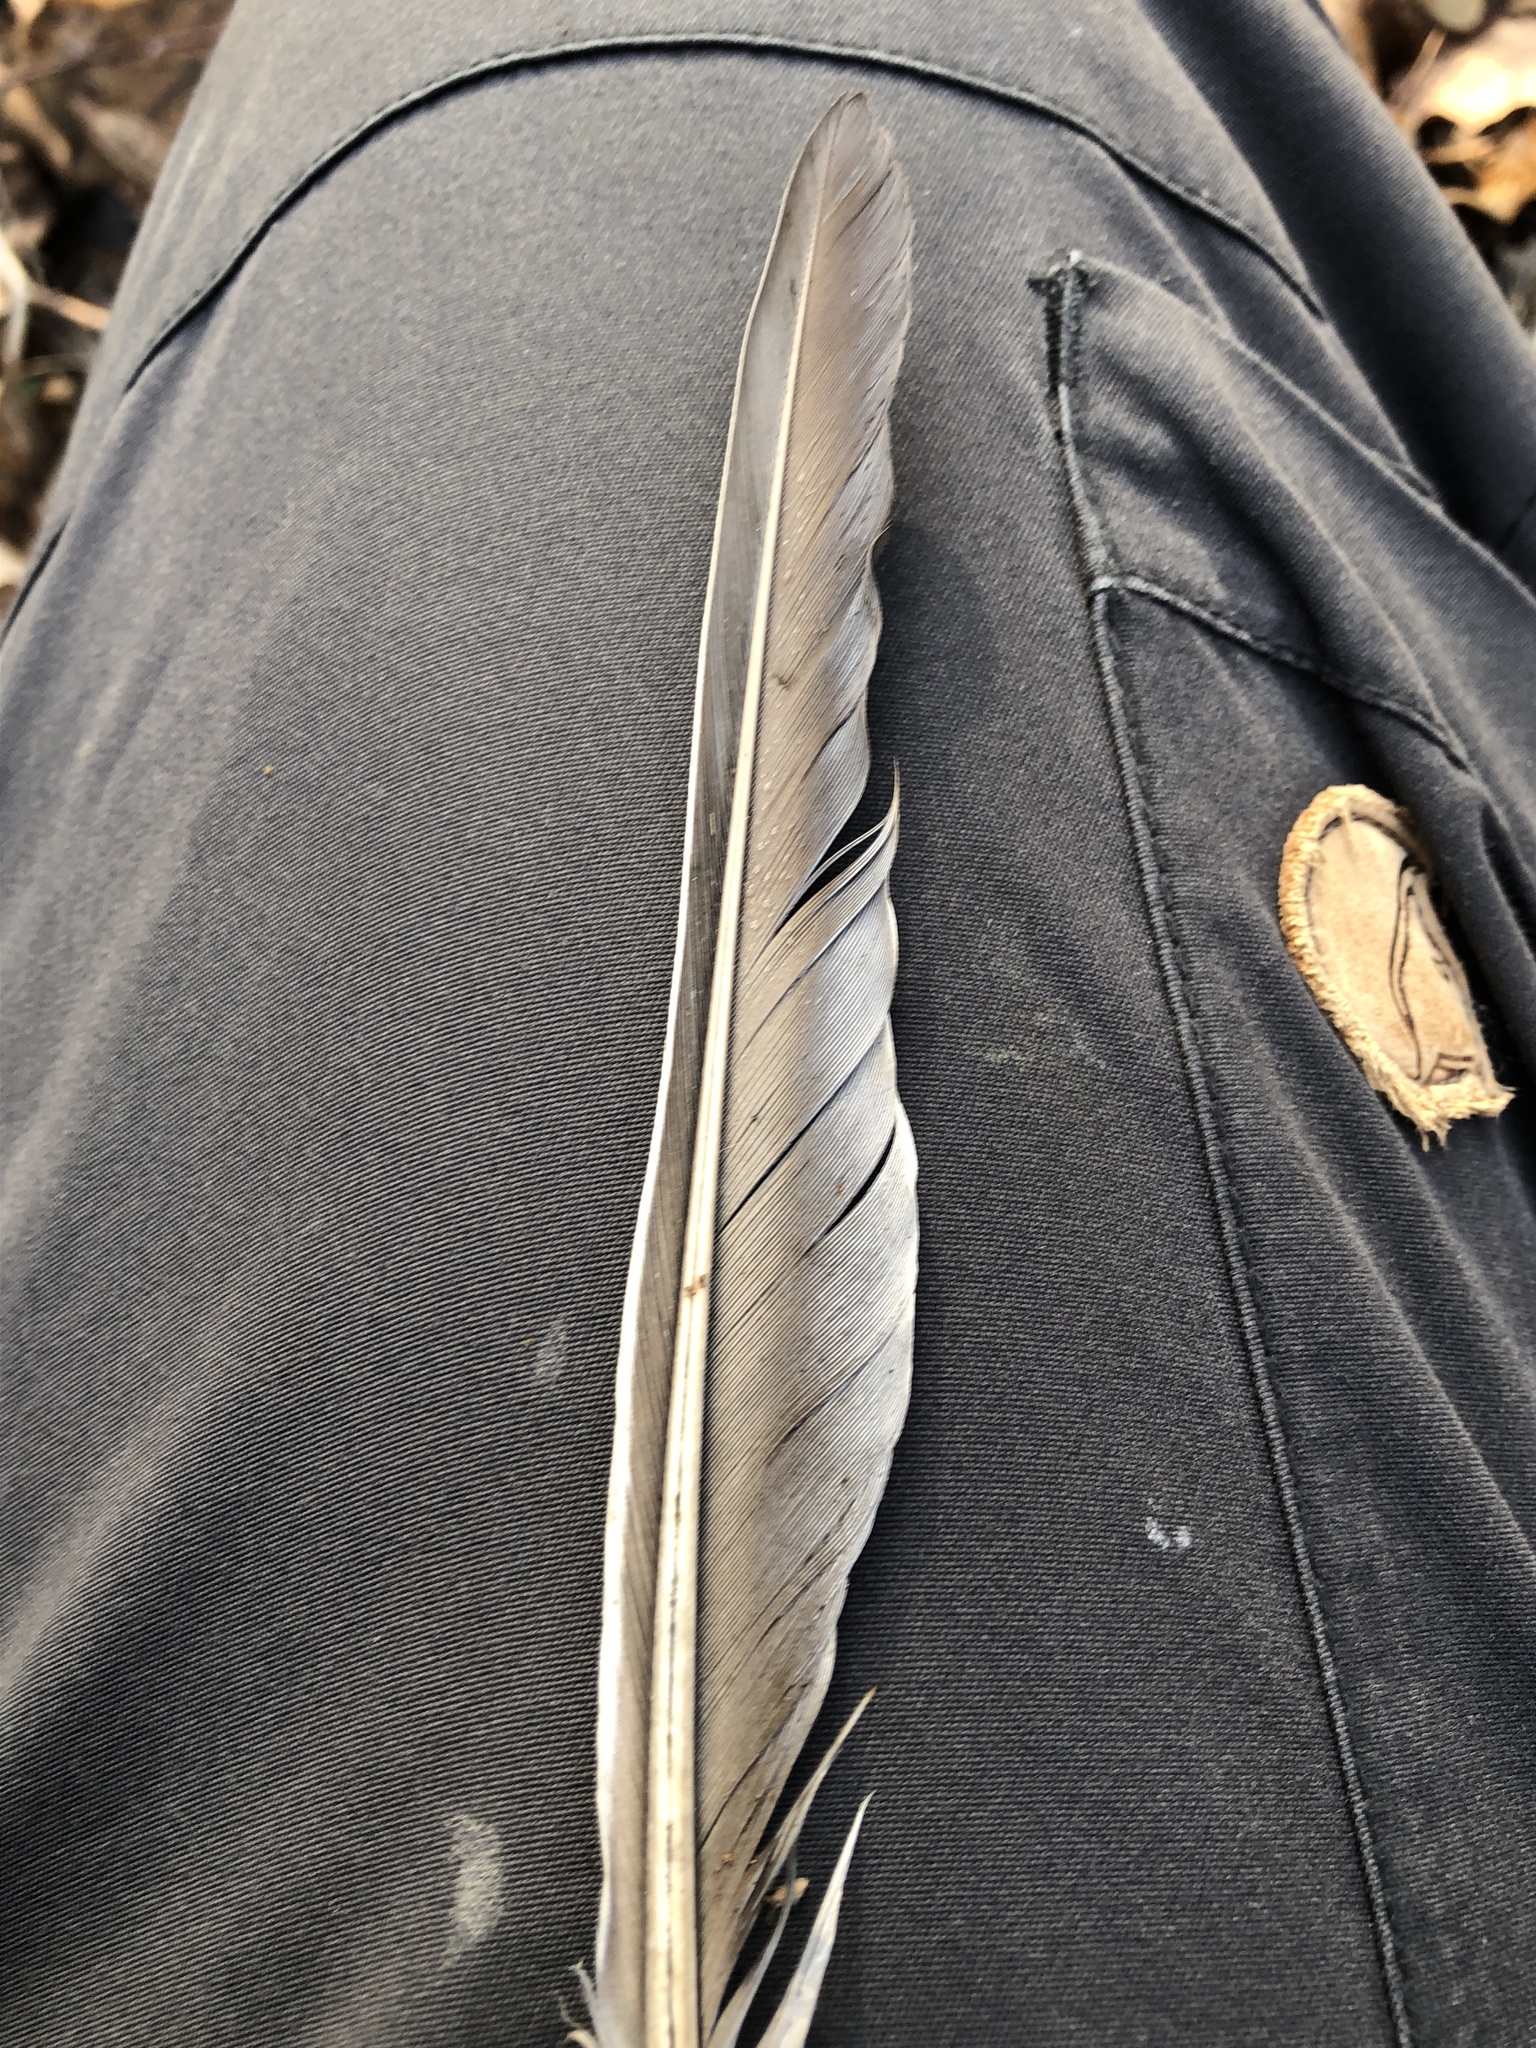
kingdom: Animalia
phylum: Chordata
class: Aves
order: Columbiformes
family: Columbidae
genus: Columba
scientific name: Columba palumbus
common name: Common wood pigeon
